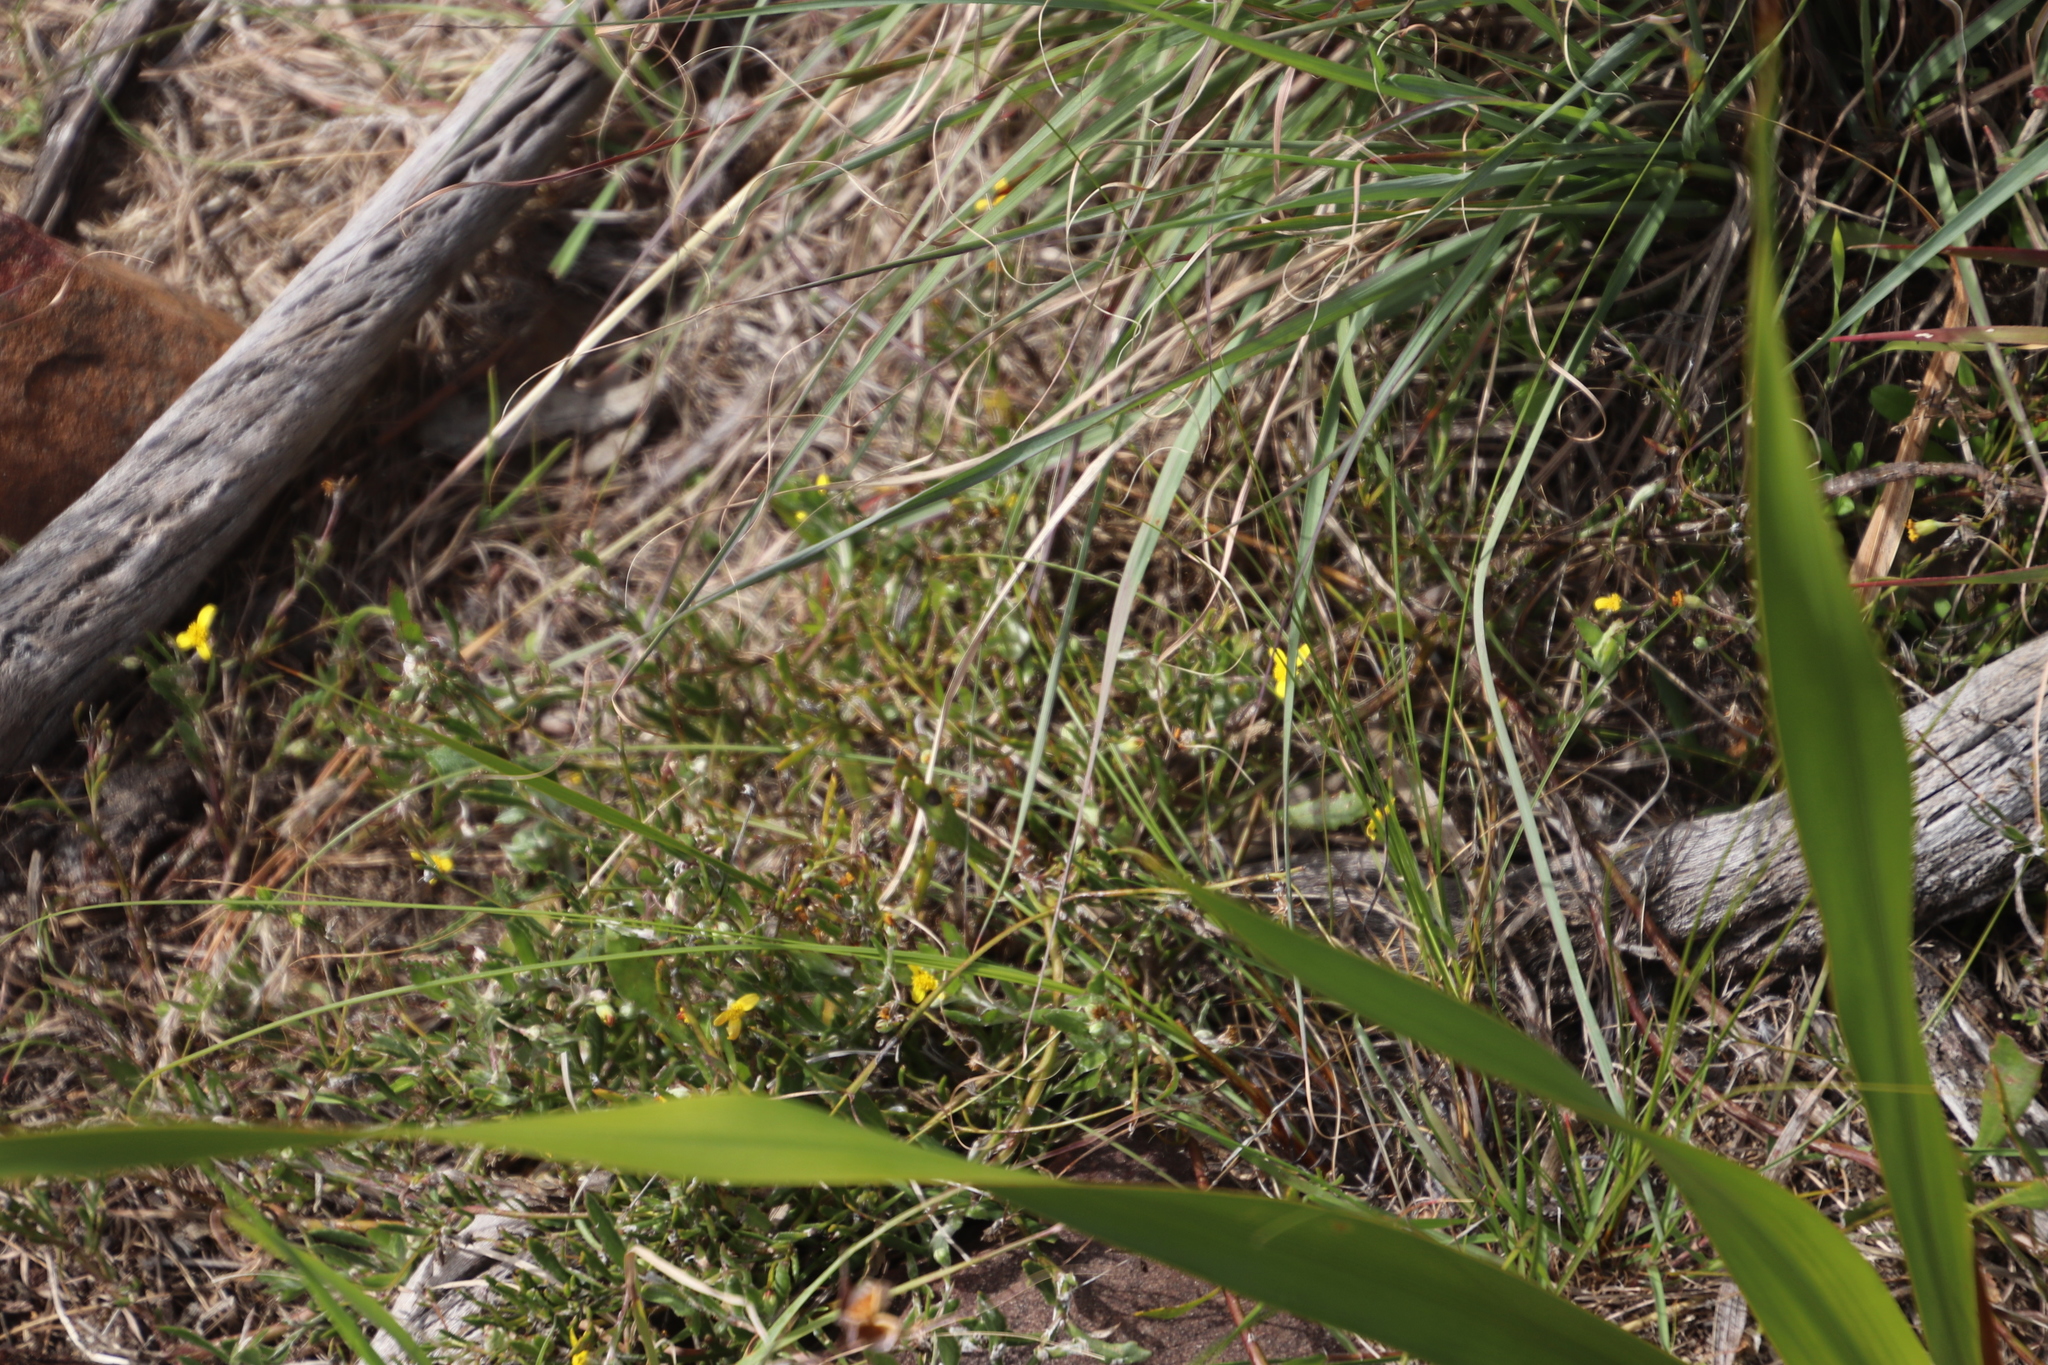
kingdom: Plantae
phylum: Tracheophyta
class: Magnoliopsida
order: Asterales
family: Asteraceae
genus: Osteospermum
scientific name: Osteospermum ciliatum
